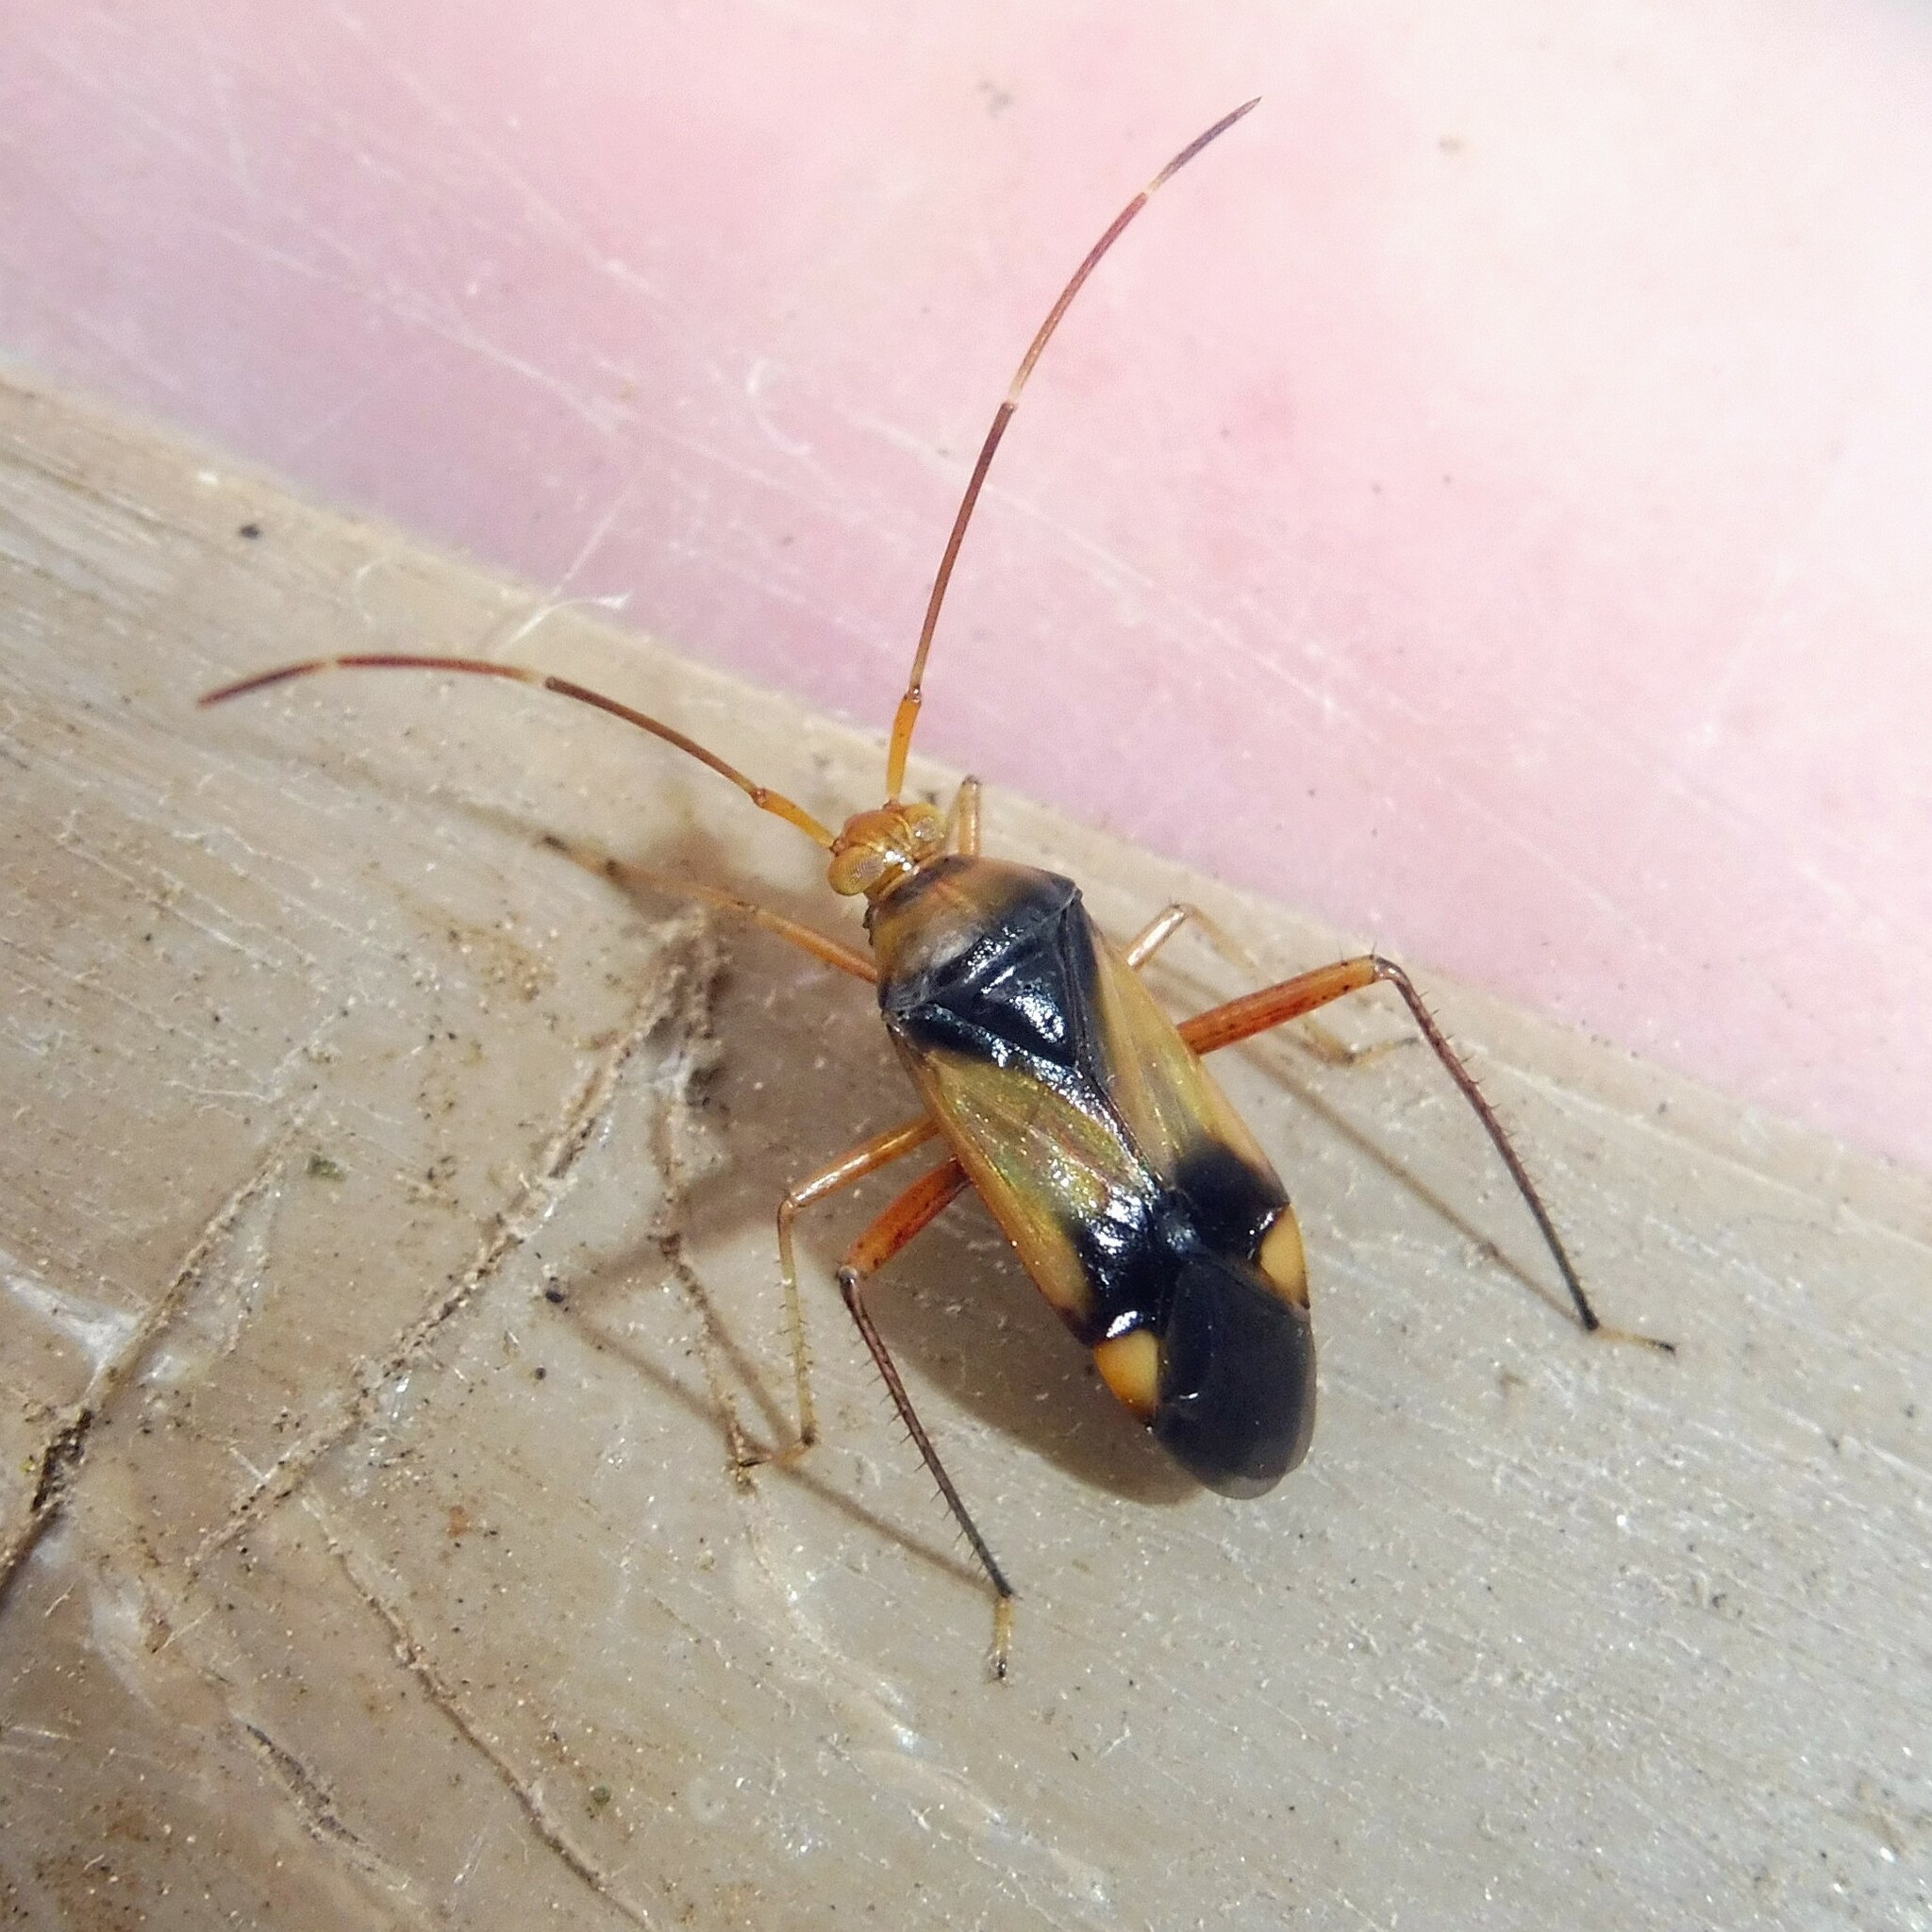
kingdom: Animalia
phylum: Arthropoda
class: Insecta
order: Hemiptera
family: Miridae
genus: Megacoelum
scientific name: Megacoelum infusum
